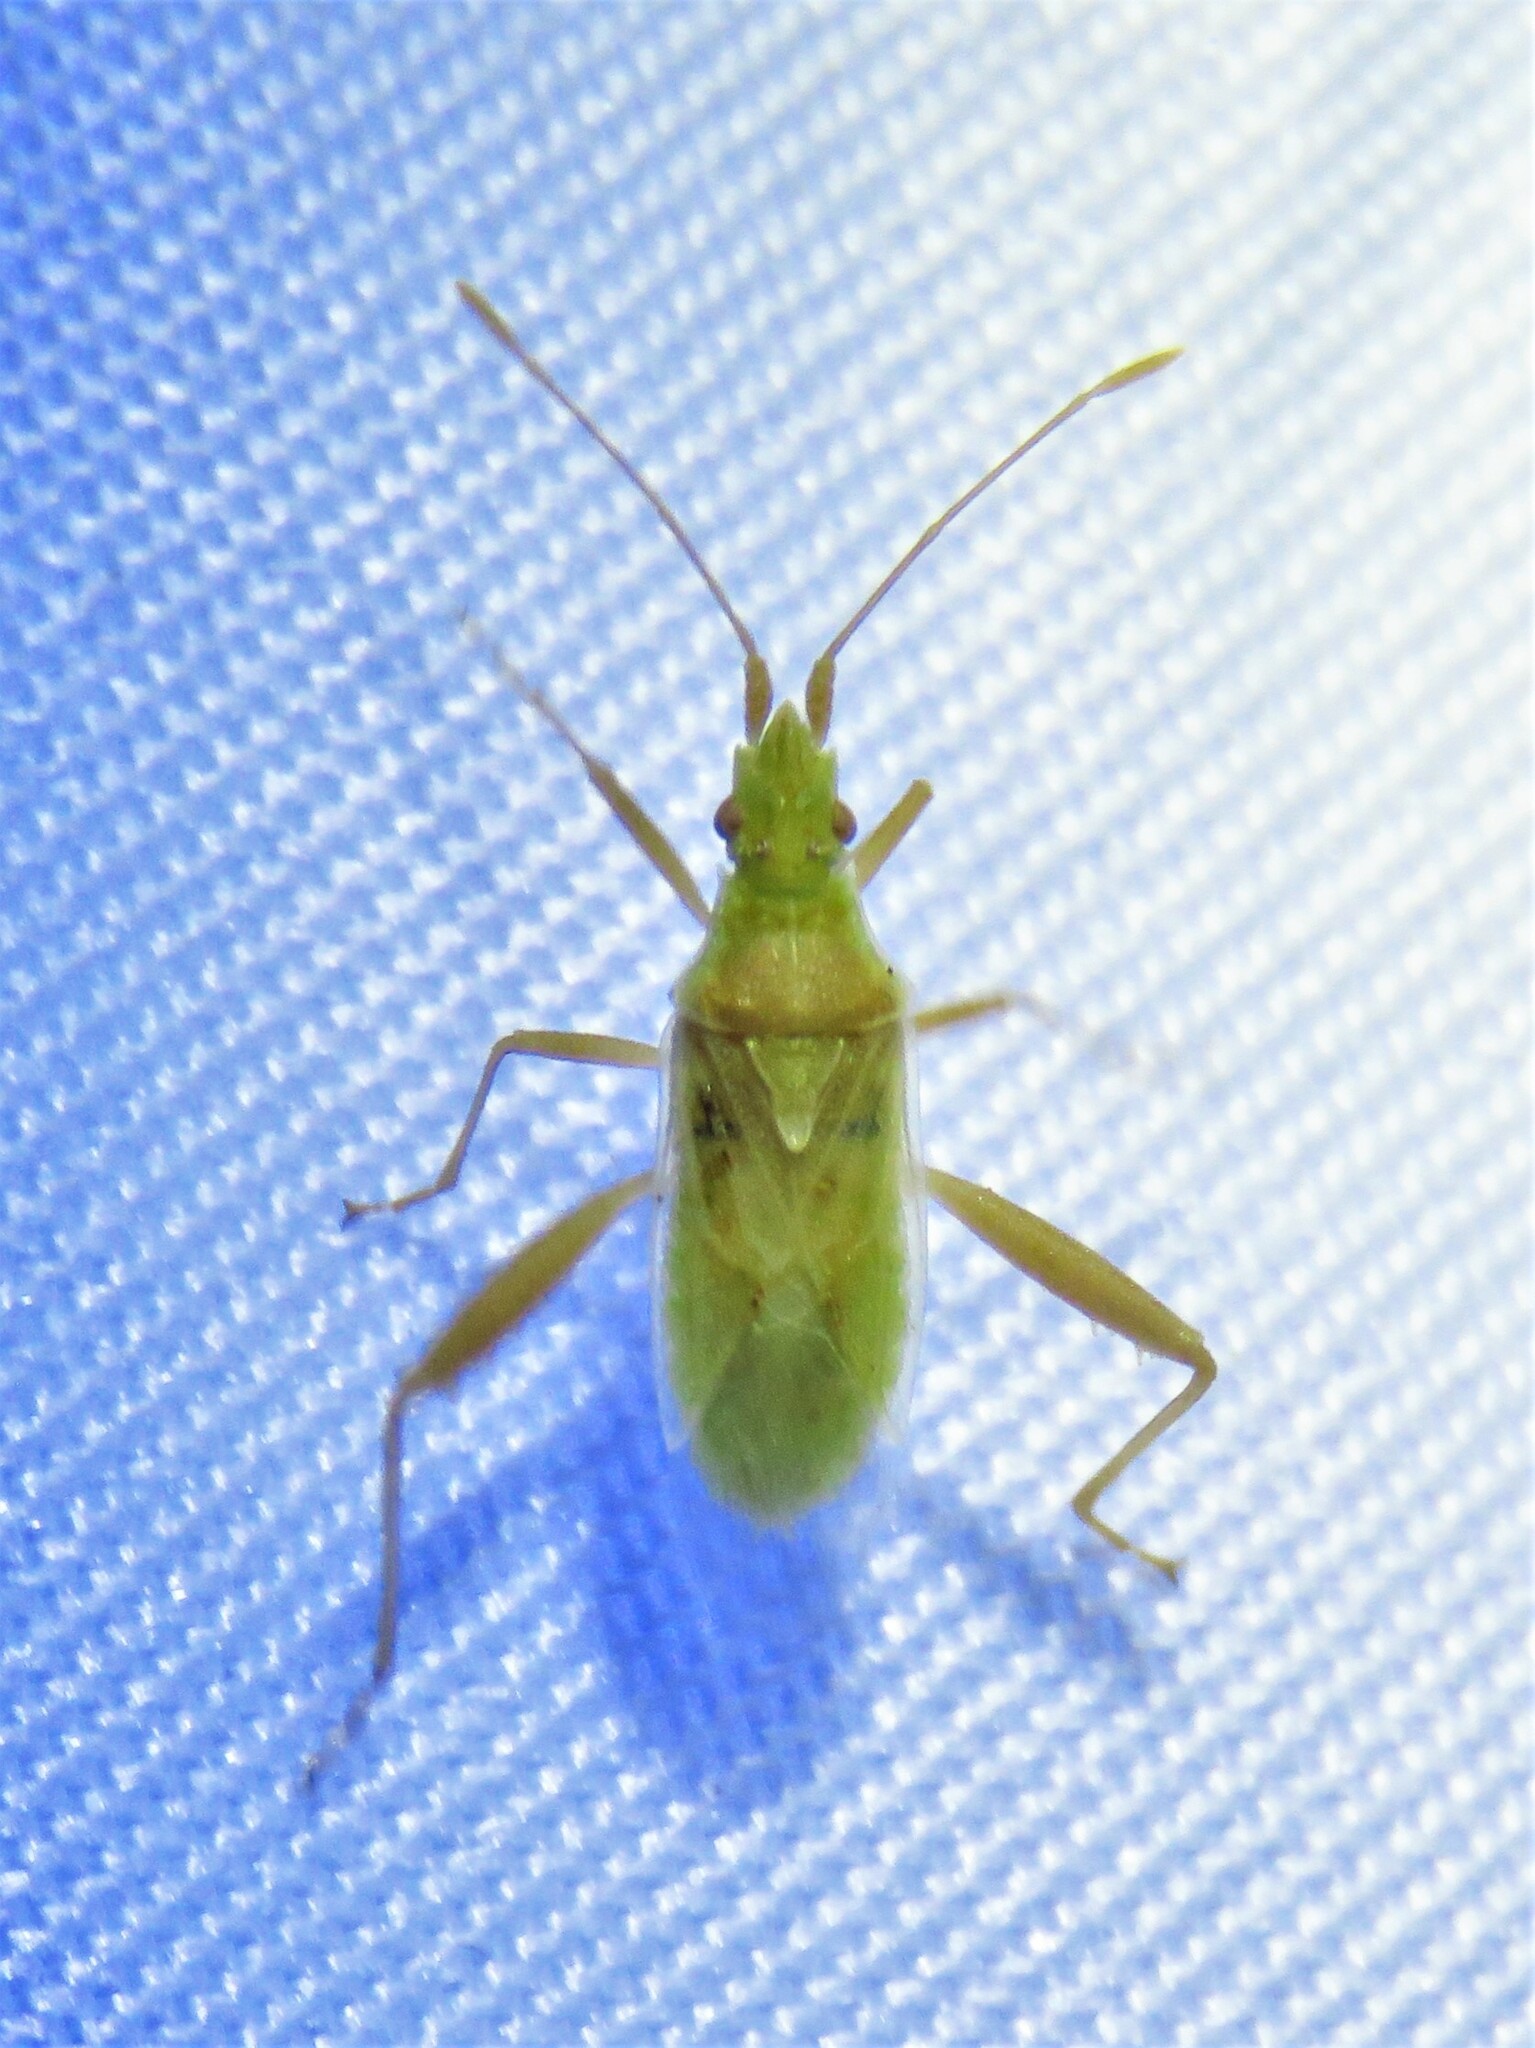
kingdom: Animalia
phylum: Arthropoda
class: Insecta
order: Hemiptera
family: Rhopalidae
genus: Harmostes
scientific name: Harmostes reflexulus
